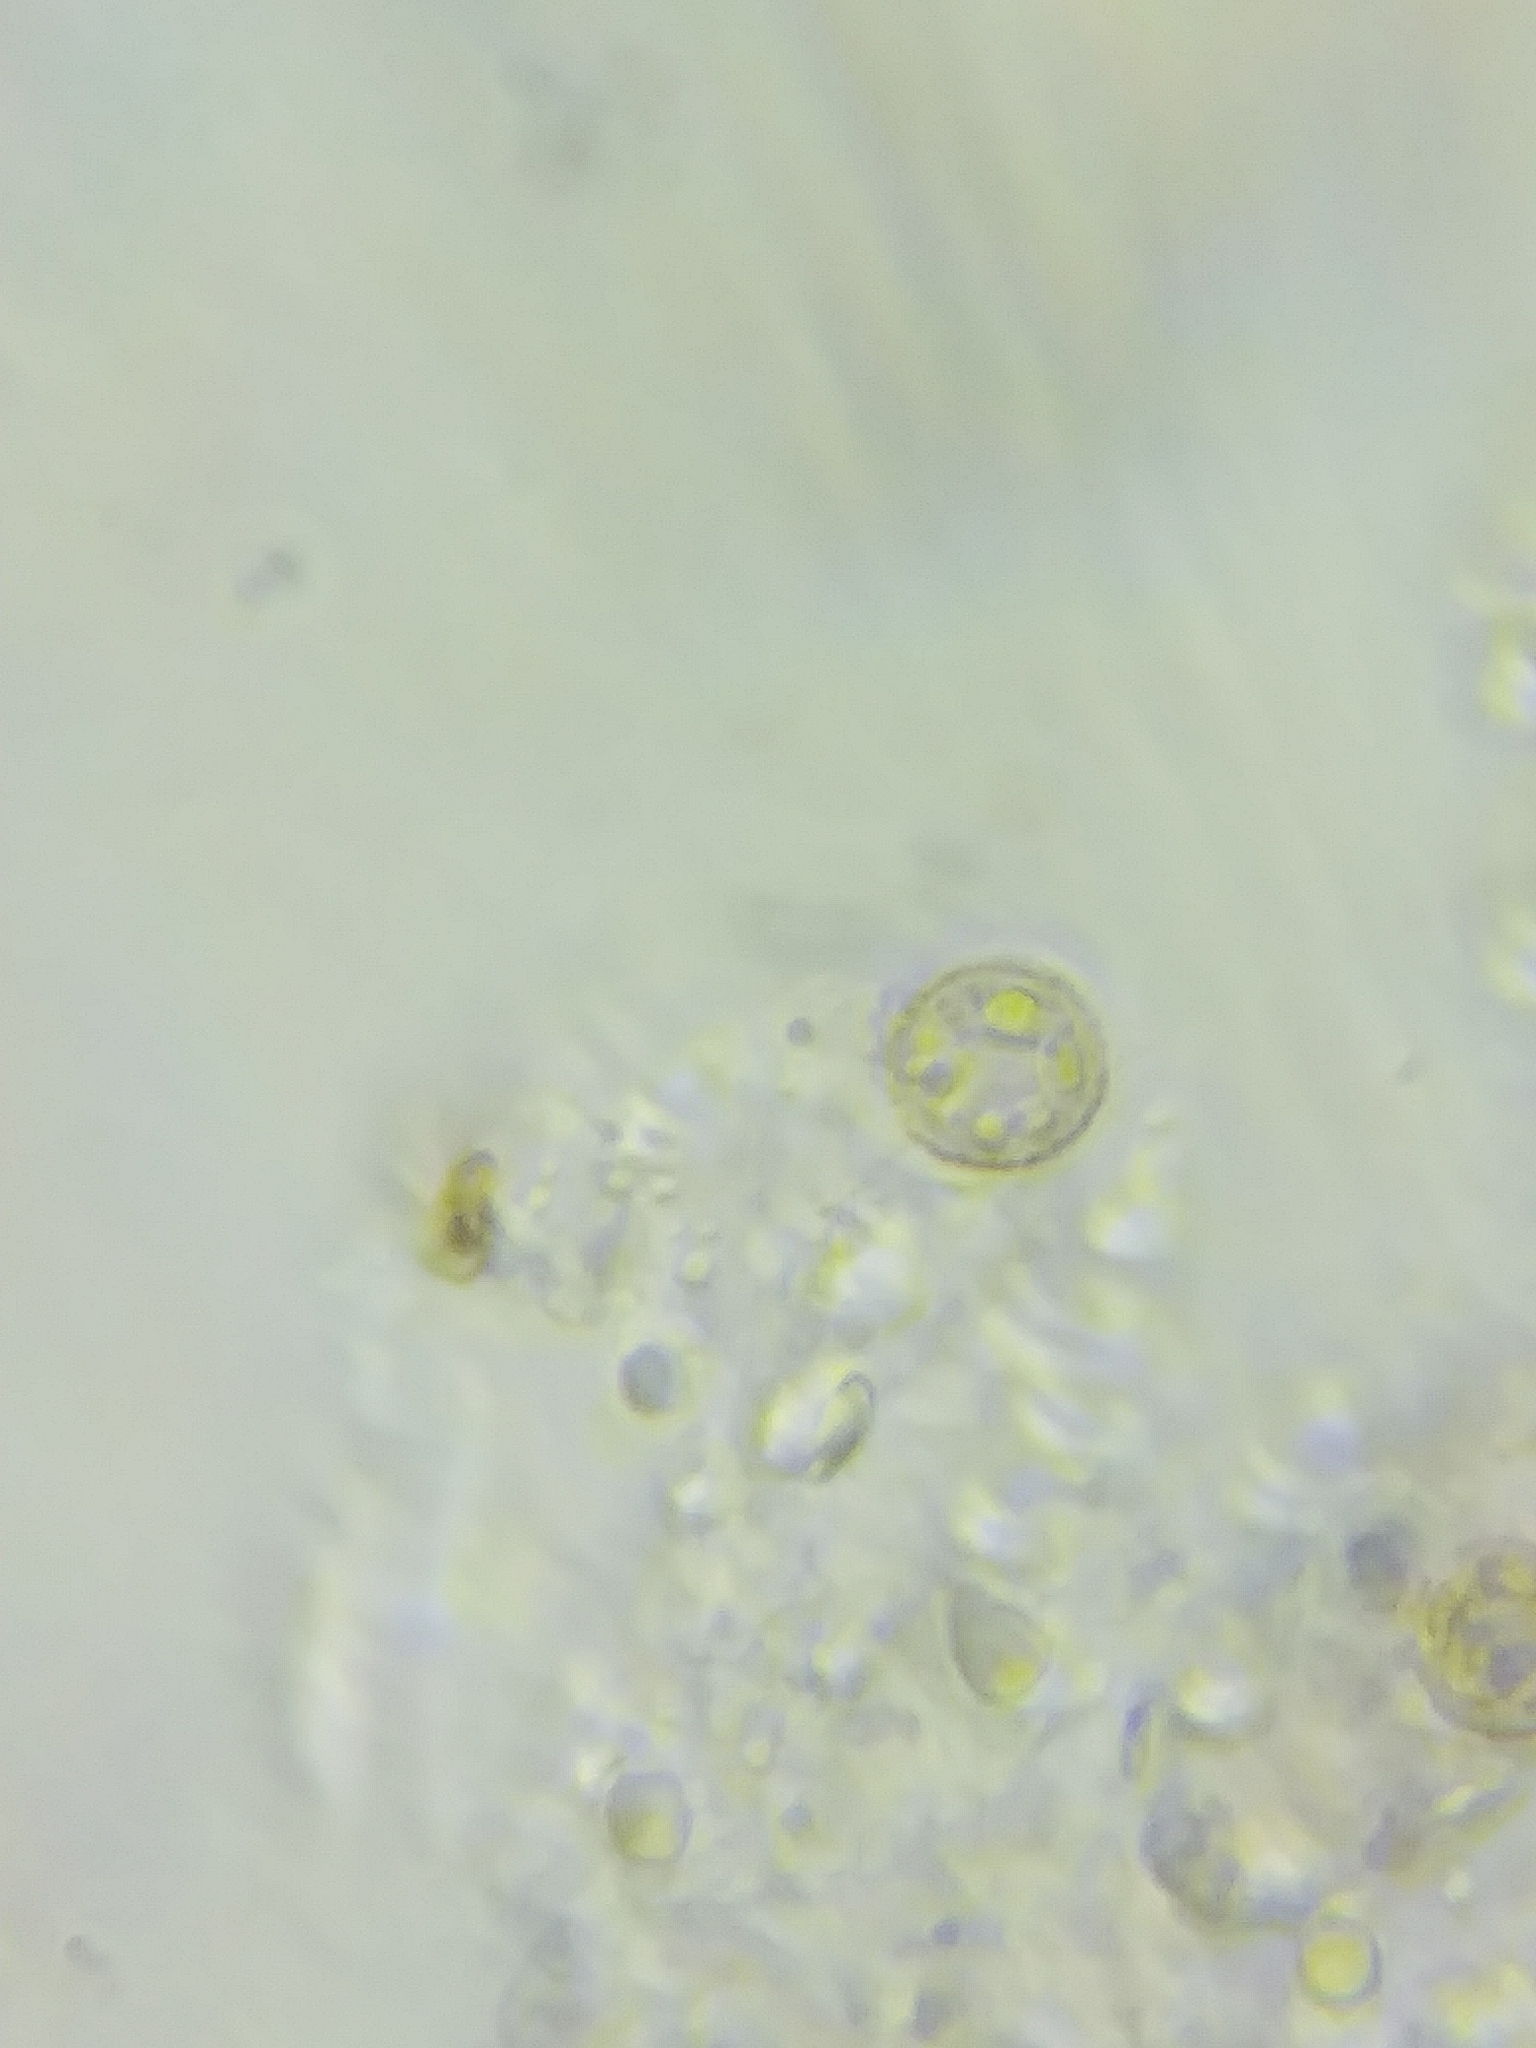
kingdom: Fungi
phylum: Basidiomycota
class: Agaricomycetes
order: Agaricales
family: Omphalotaceae
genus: Collybiopsis
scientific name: Collybiopsis dichroa
